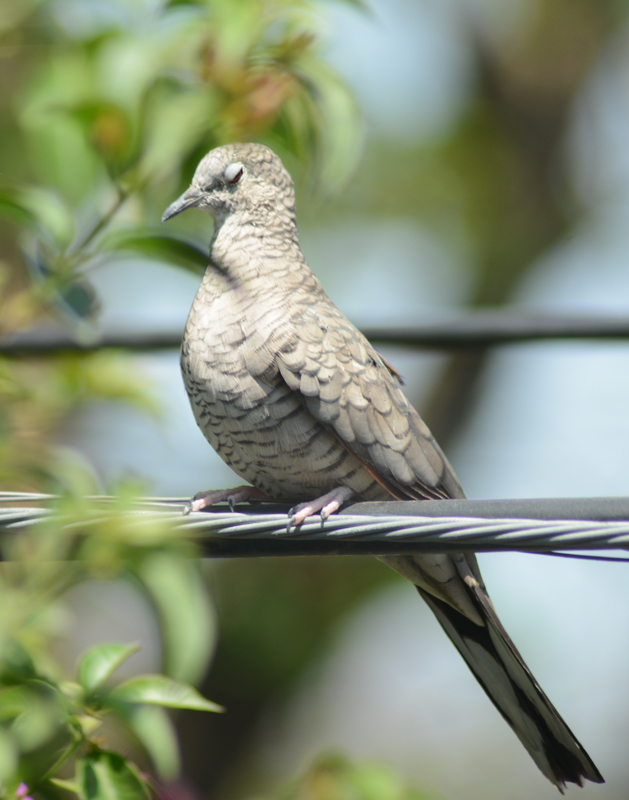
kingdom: Animalia
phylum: Chordata
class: Aves
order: Columbiformes
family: Columbidae
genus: Columbina
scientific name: Columbina inca
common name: Inca dove
